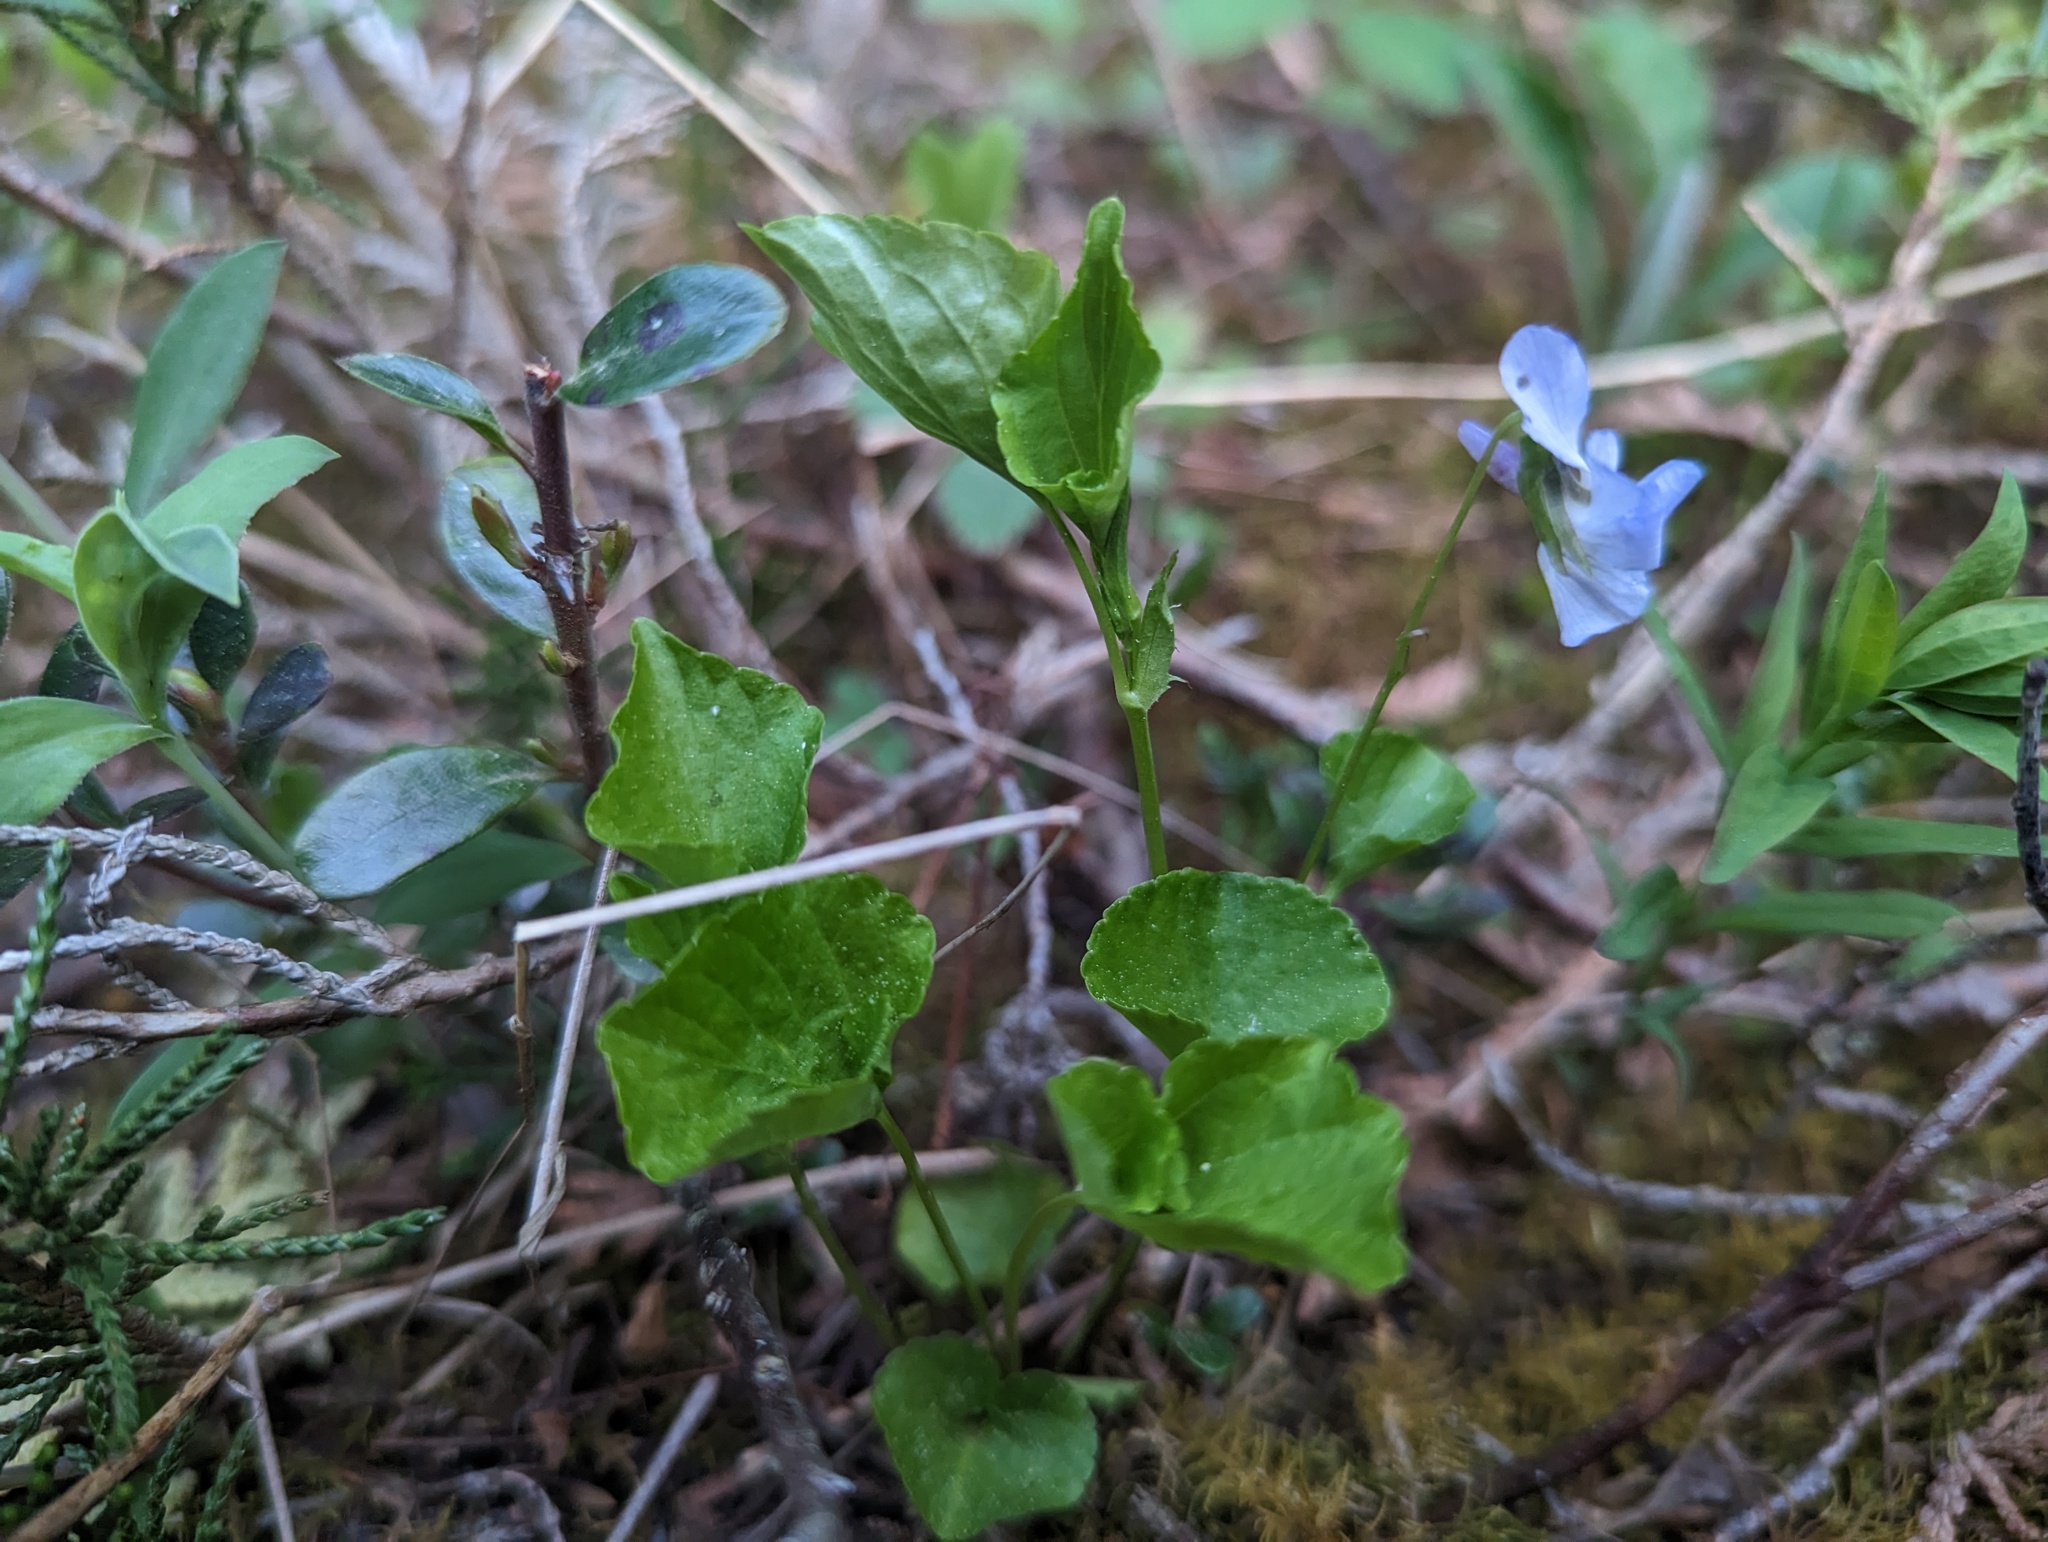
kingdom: Plantae
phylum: Tracheophyta
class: Magnoliopsida
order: Malpighiales
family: Violaceae
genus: Viola
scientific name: Viola labradorica
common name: Labrador violet
